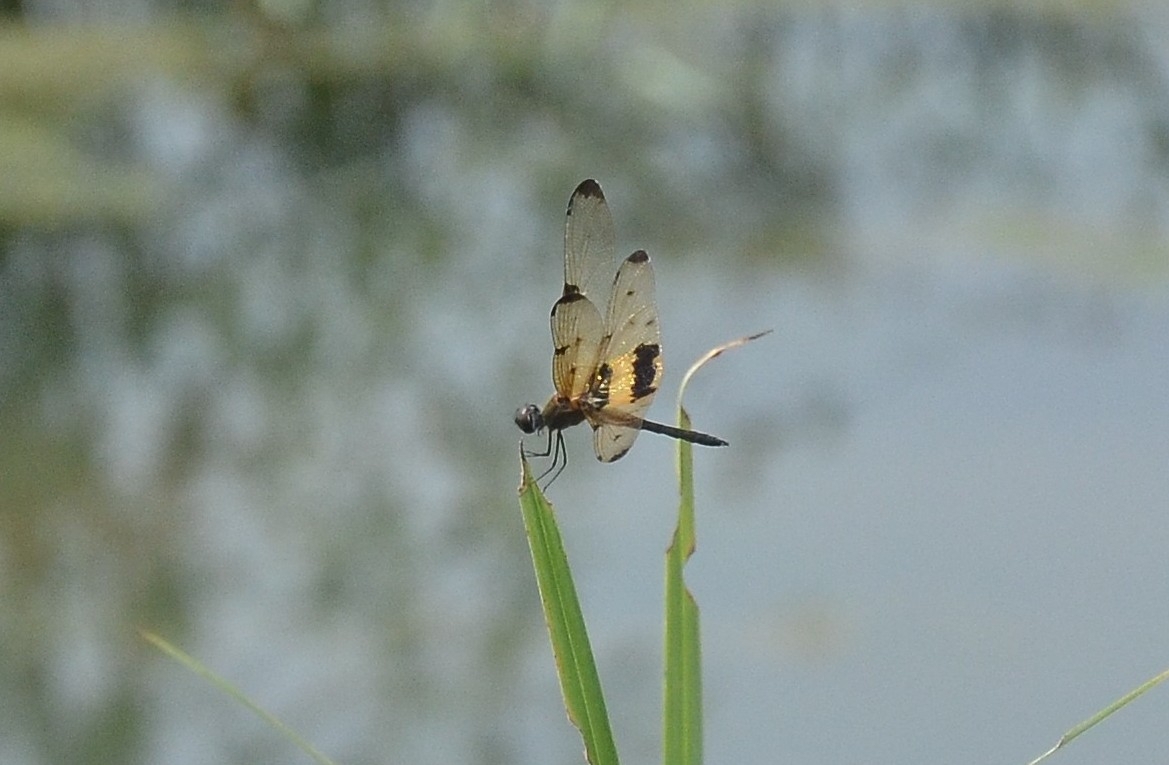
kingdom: Animalia
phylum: Arthropoda
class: Insecta
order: Odonata
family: Libellulidae
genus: Rhyothemis
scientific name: Rhyothemis variegata
